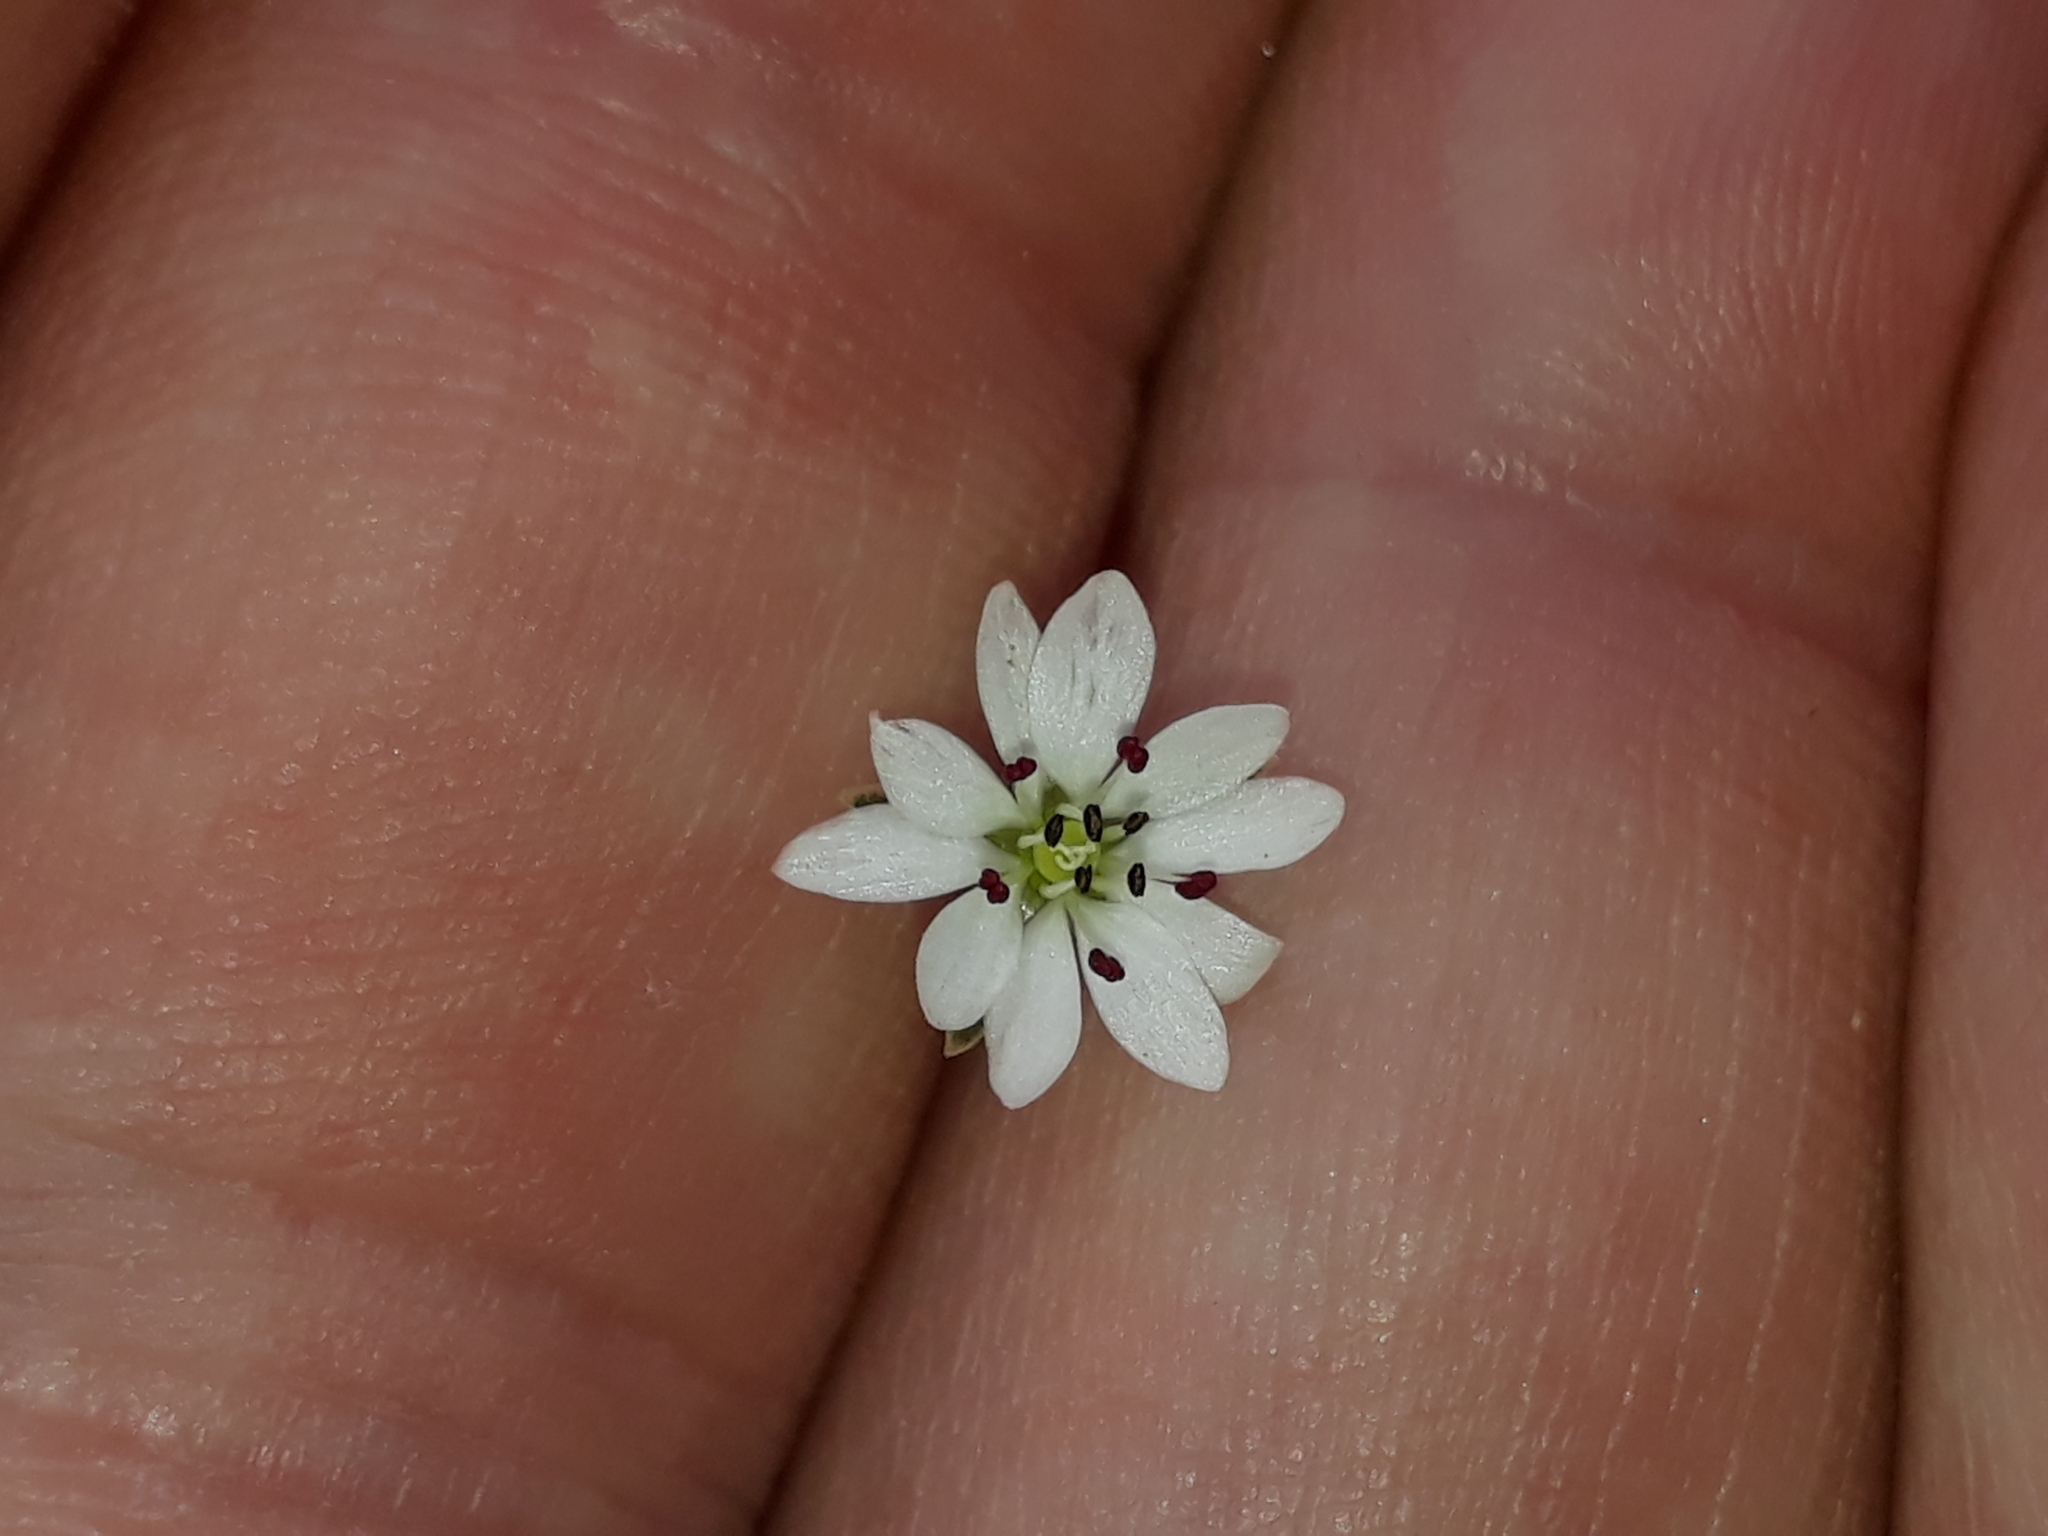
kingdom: Plantae
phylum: Tracheophyta
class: Magnoliopsida
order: Caryophyllales
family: Caryophyllaceae
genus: Stellaria
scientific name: Stellaria gracilenta
